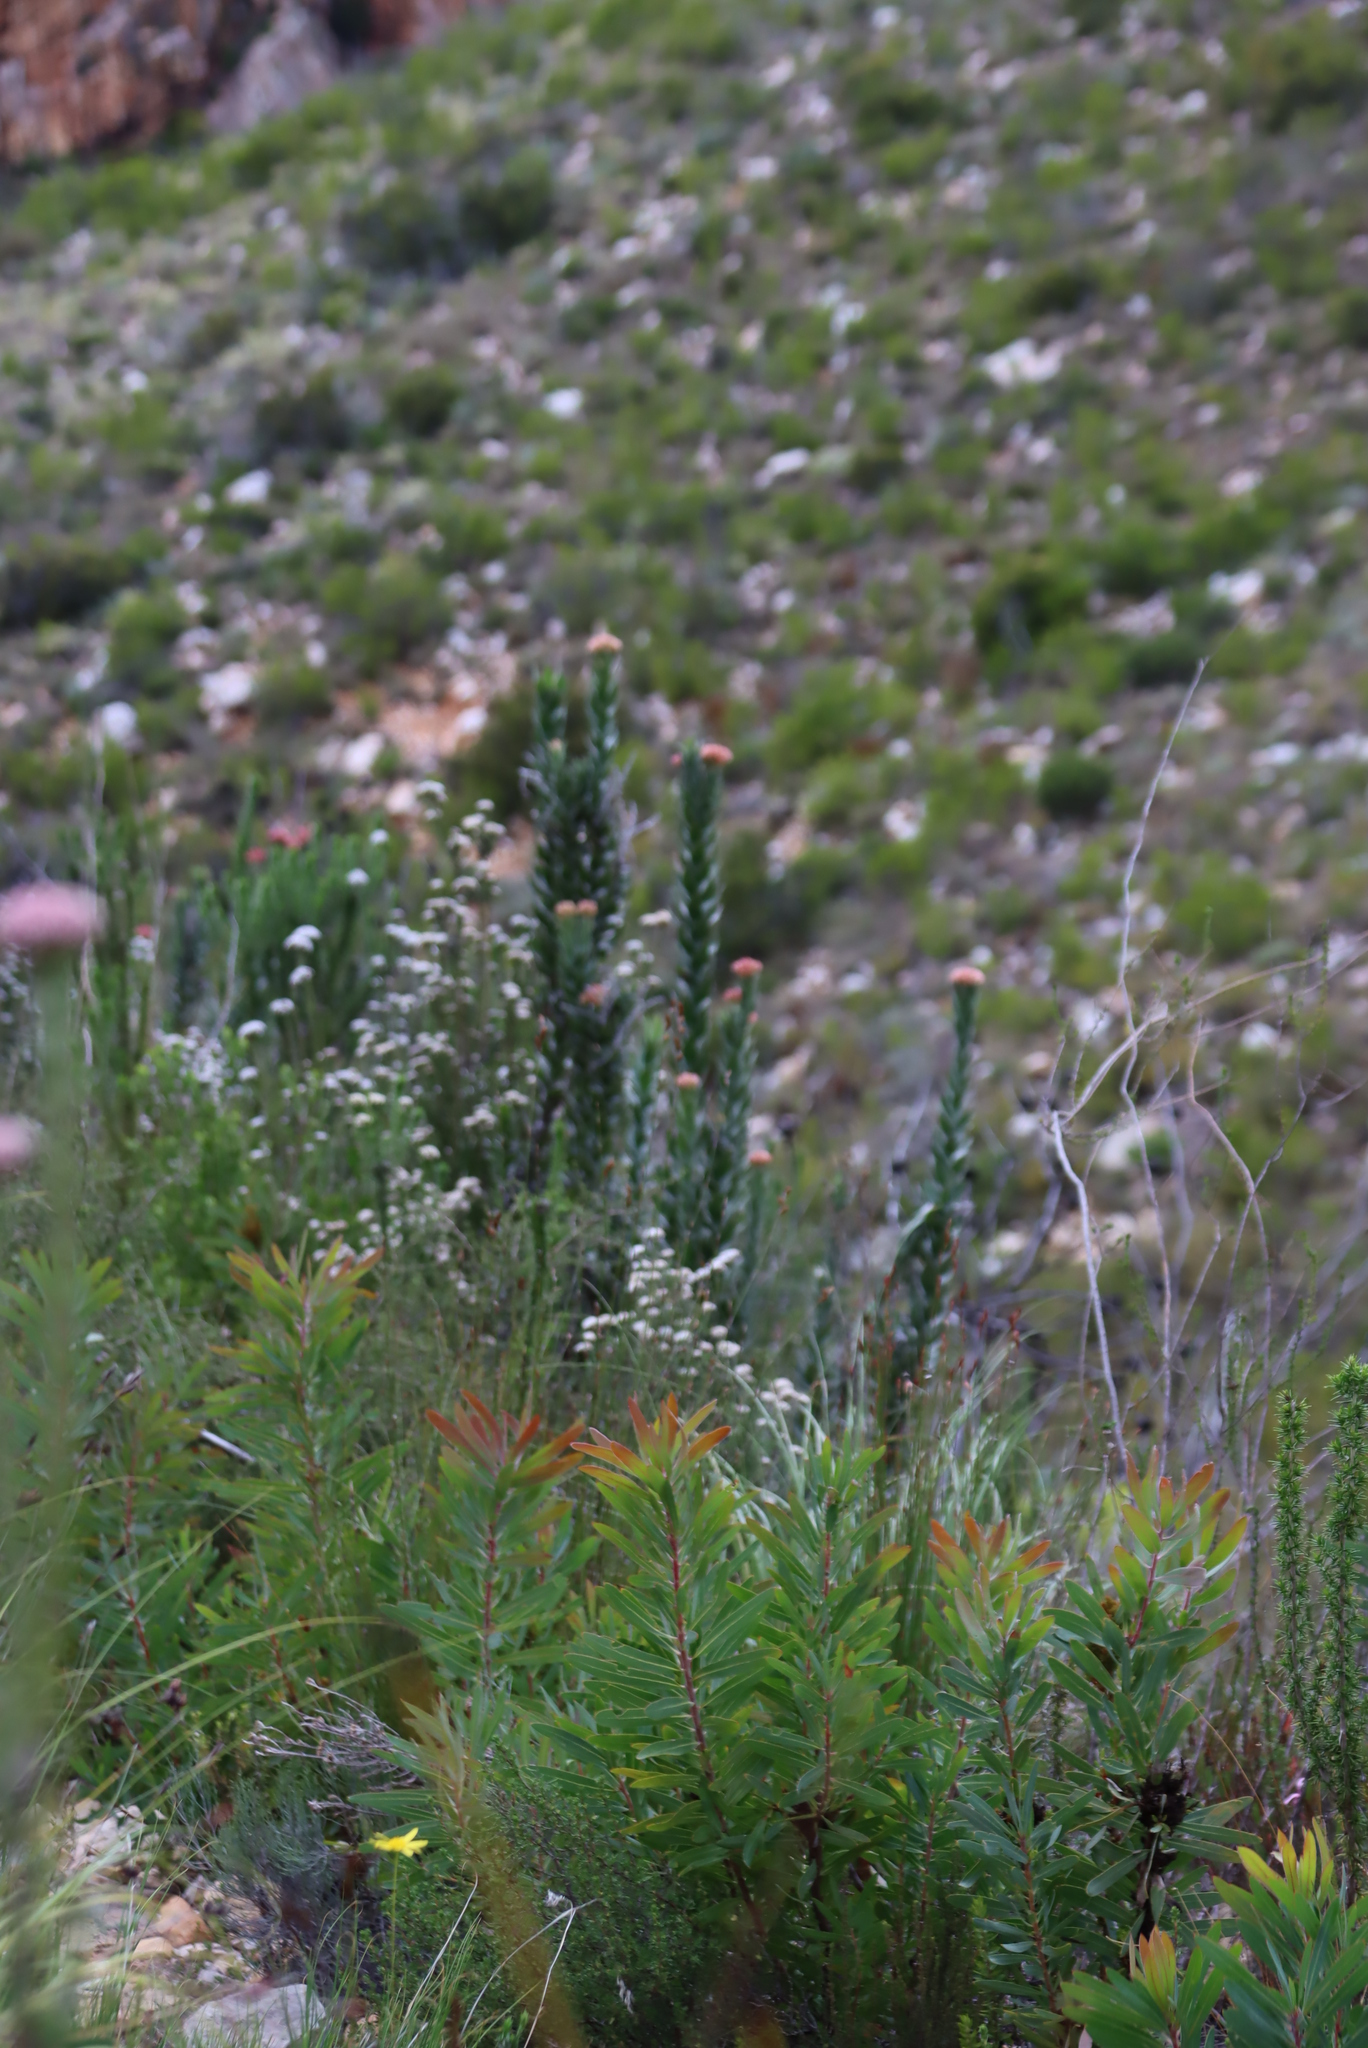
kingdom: Plantae
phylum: Tracheophyta
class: Magnoliopsida
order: Asterales
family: Asteraceae
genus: Syncarpha
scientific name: Syncarpha milleflora
